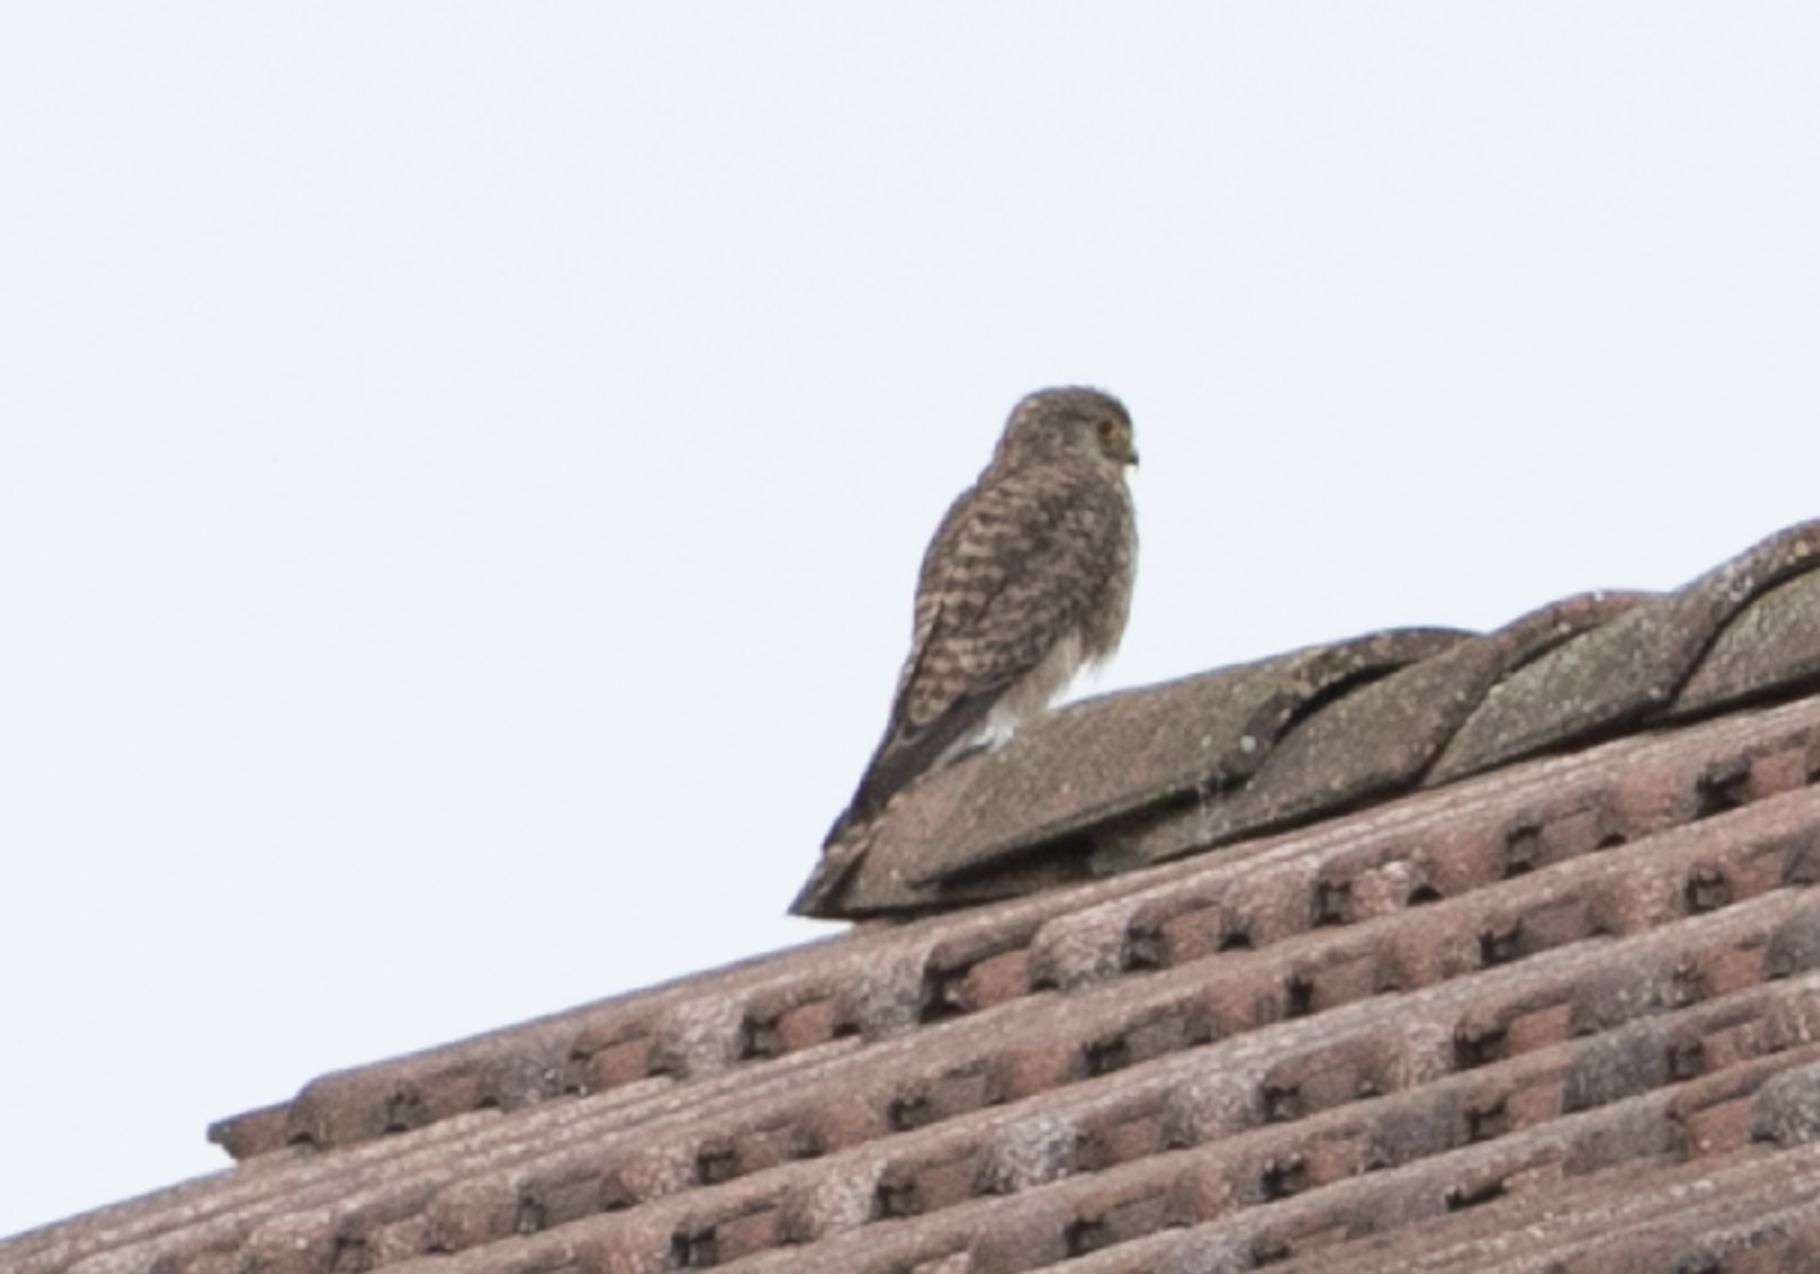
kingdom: Animalia
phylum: Chordata
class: Aves
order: Falconiformes
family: Falconidae
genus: Falco
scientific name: Falco tinnunculus
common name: Common kestrel
